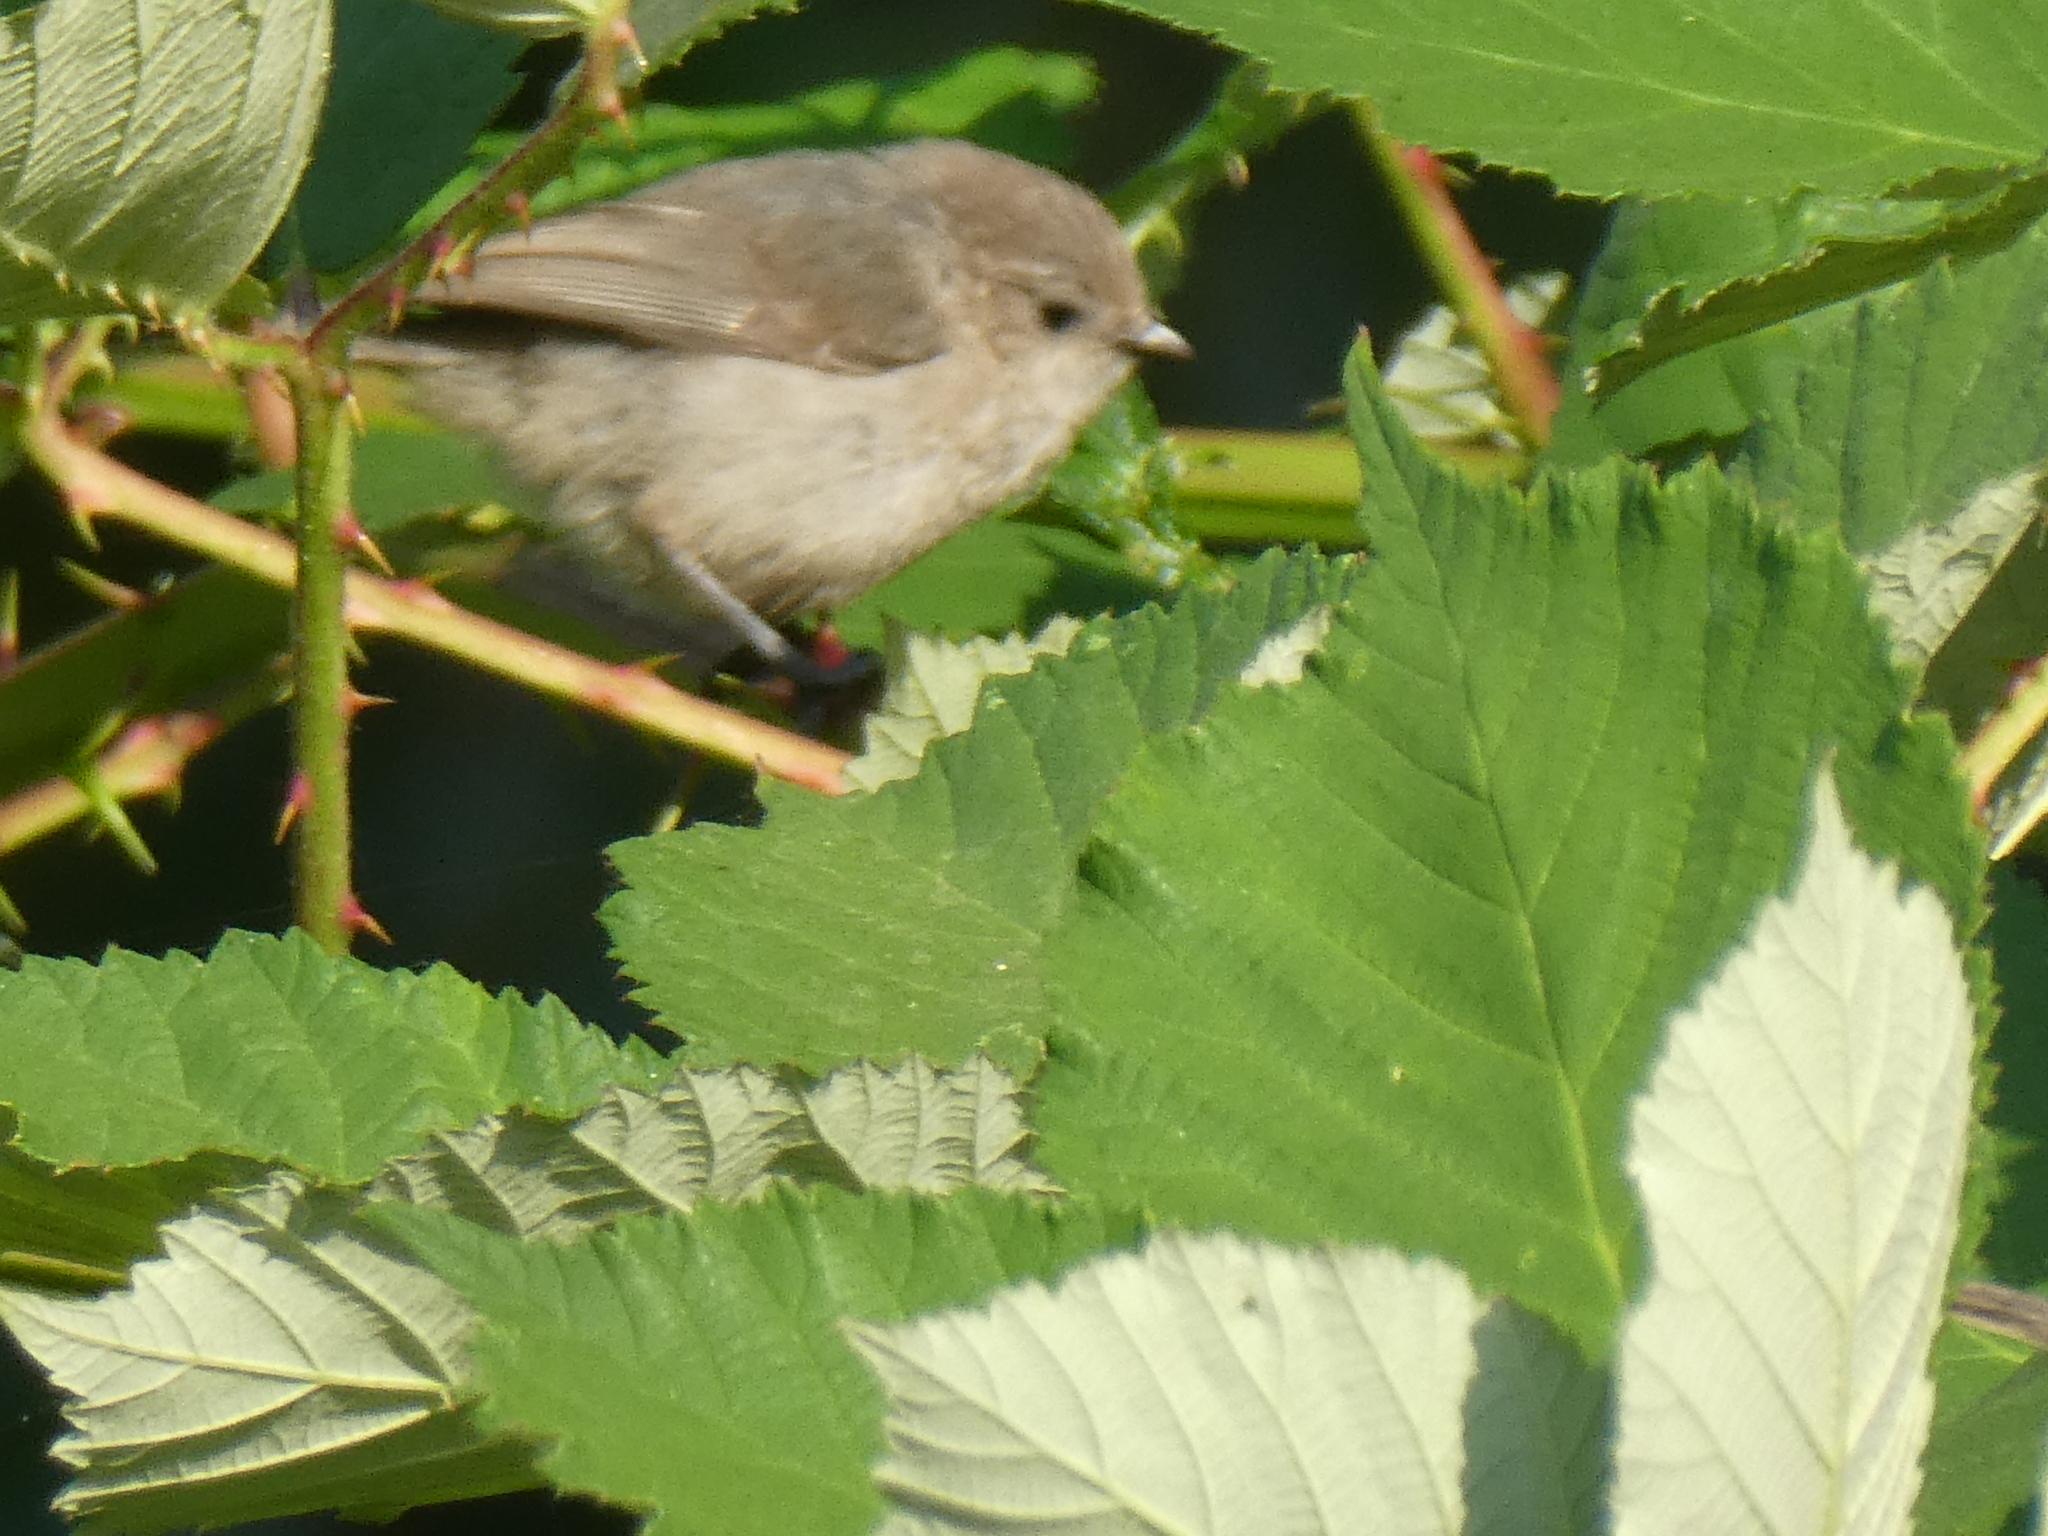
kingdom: Animalia
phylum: Chordata
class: Aves
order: Passeriformes
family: Aegithalidae
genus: Psaltriparus
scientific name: Psaltriparus minimus
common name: American bushtit
